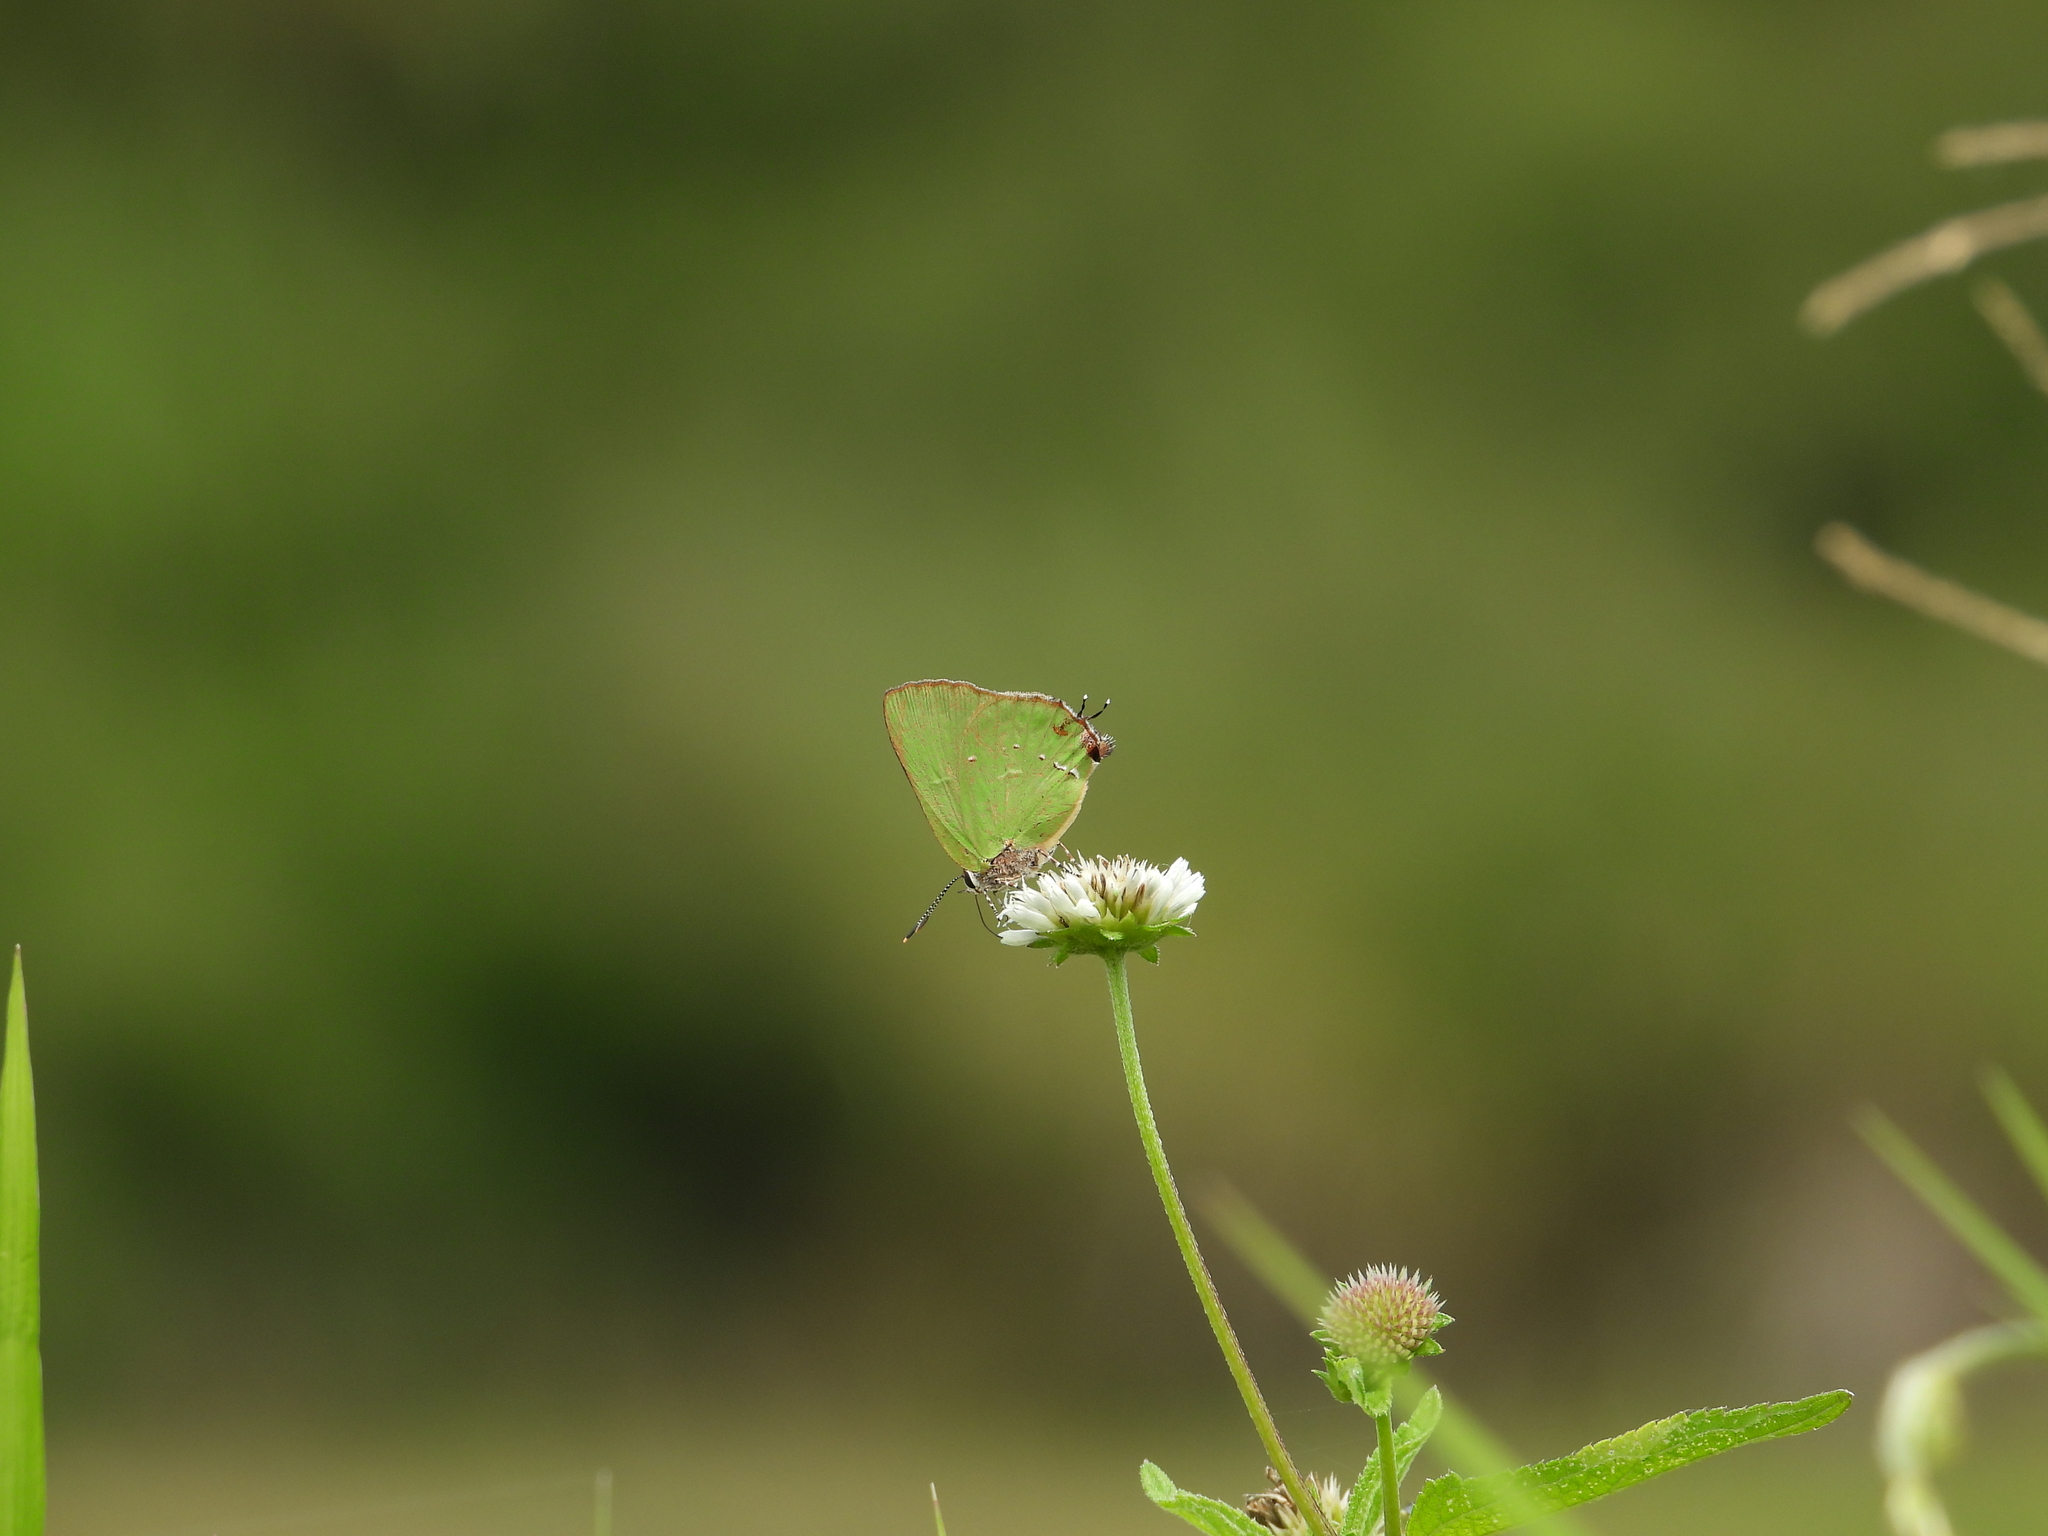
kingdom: Animalia
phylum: Arthropoda
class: Insecta
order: Lepidoptera
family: Lycaenidae
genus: Thecla
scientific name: Thecla amyntor
